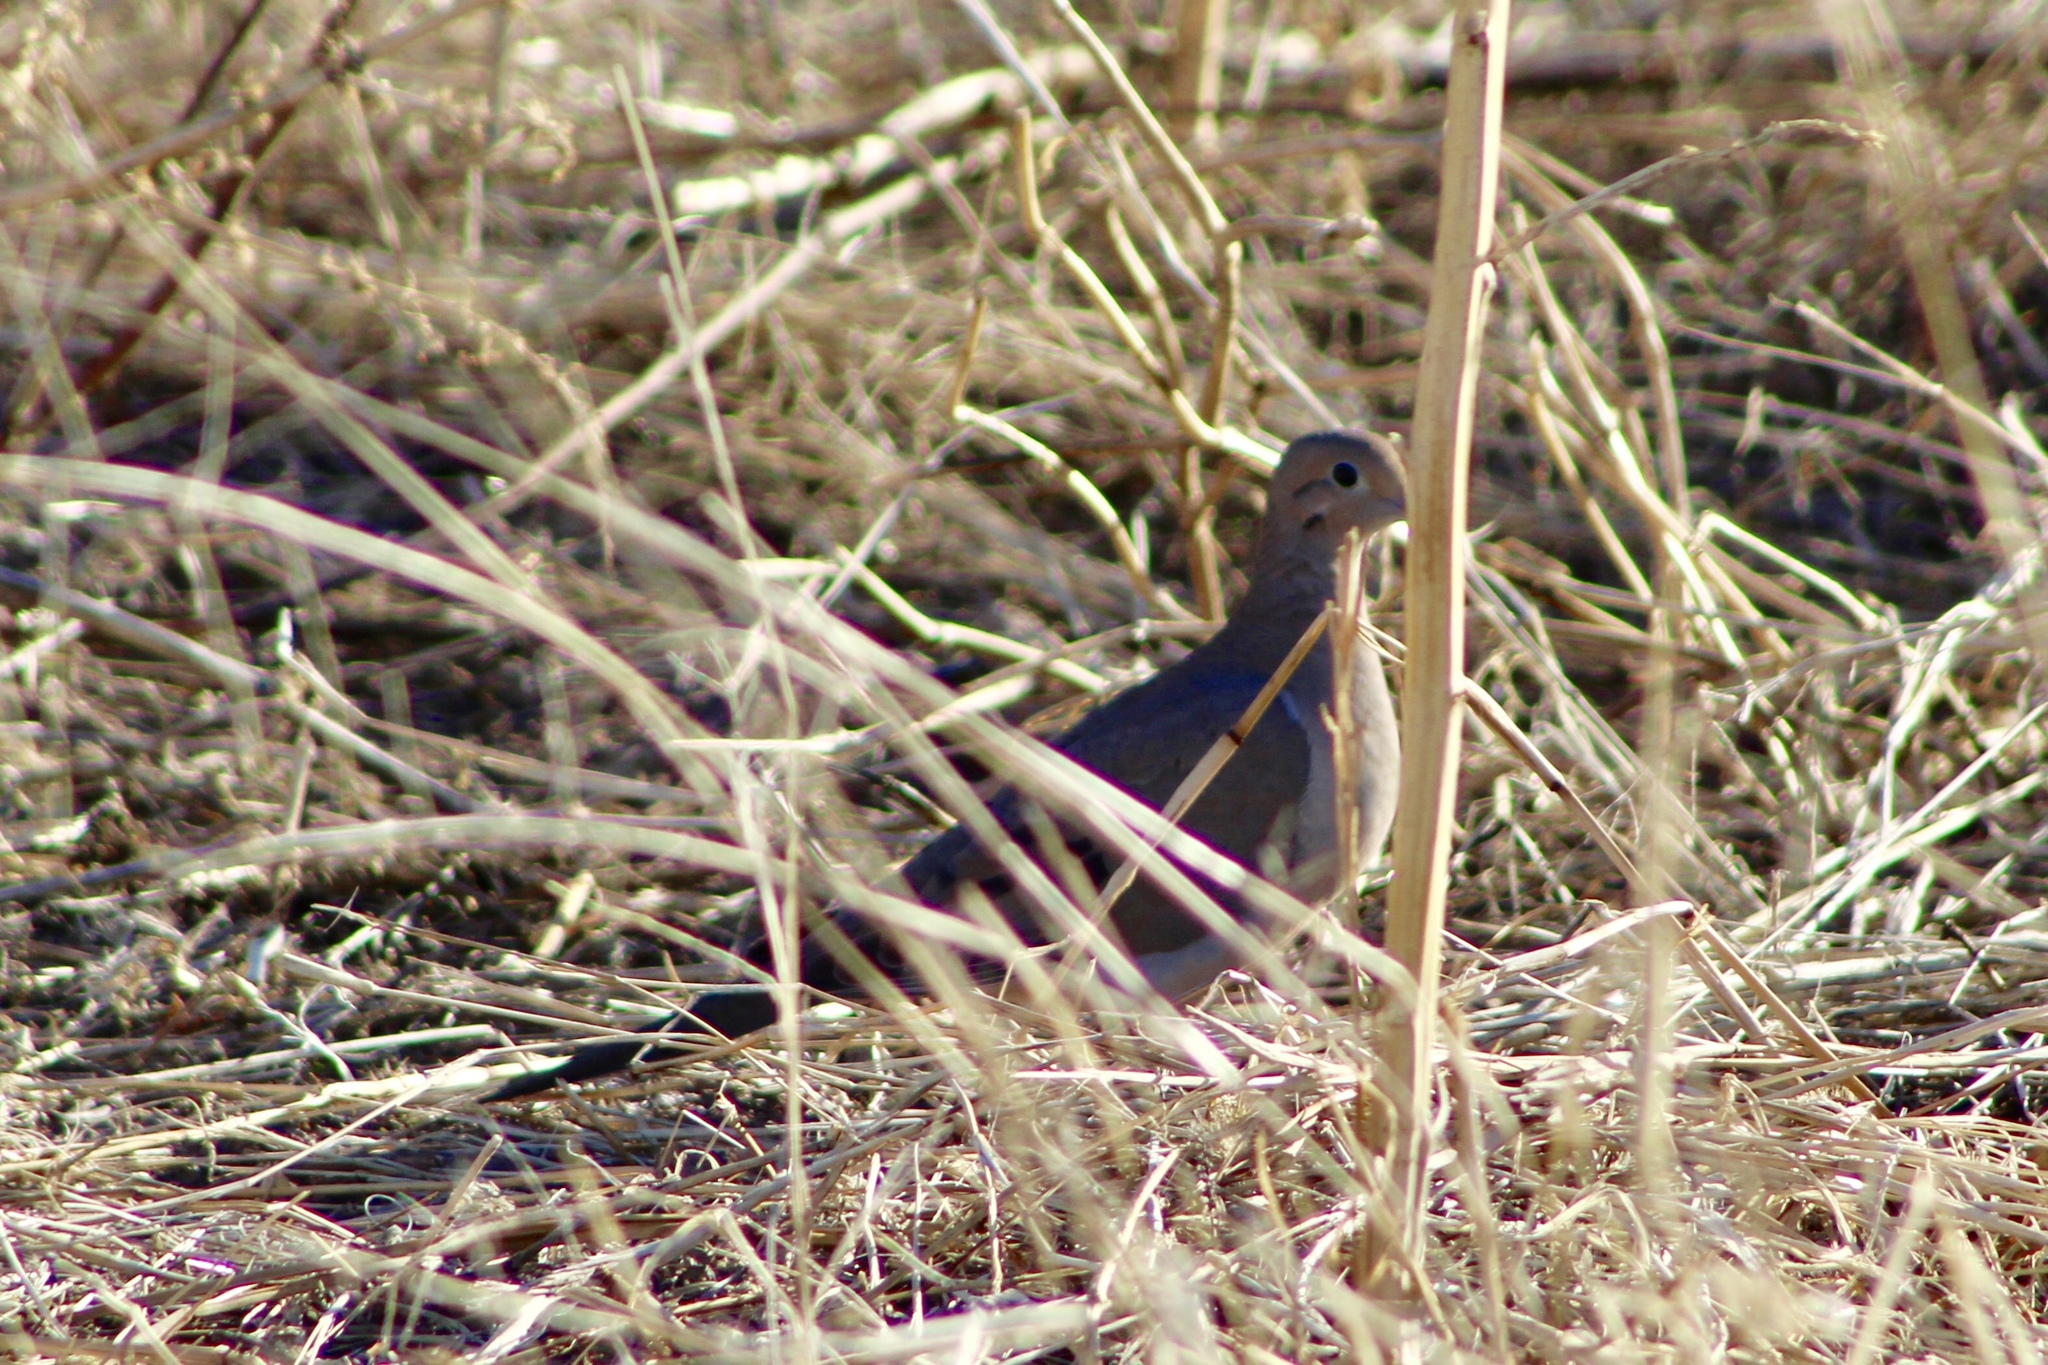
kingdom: Animalia
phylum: Chordata
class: Aves
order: Columbiformes
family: Columbidae
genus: Zenaida
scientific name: Zenaida macroura
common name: Mourning dove
